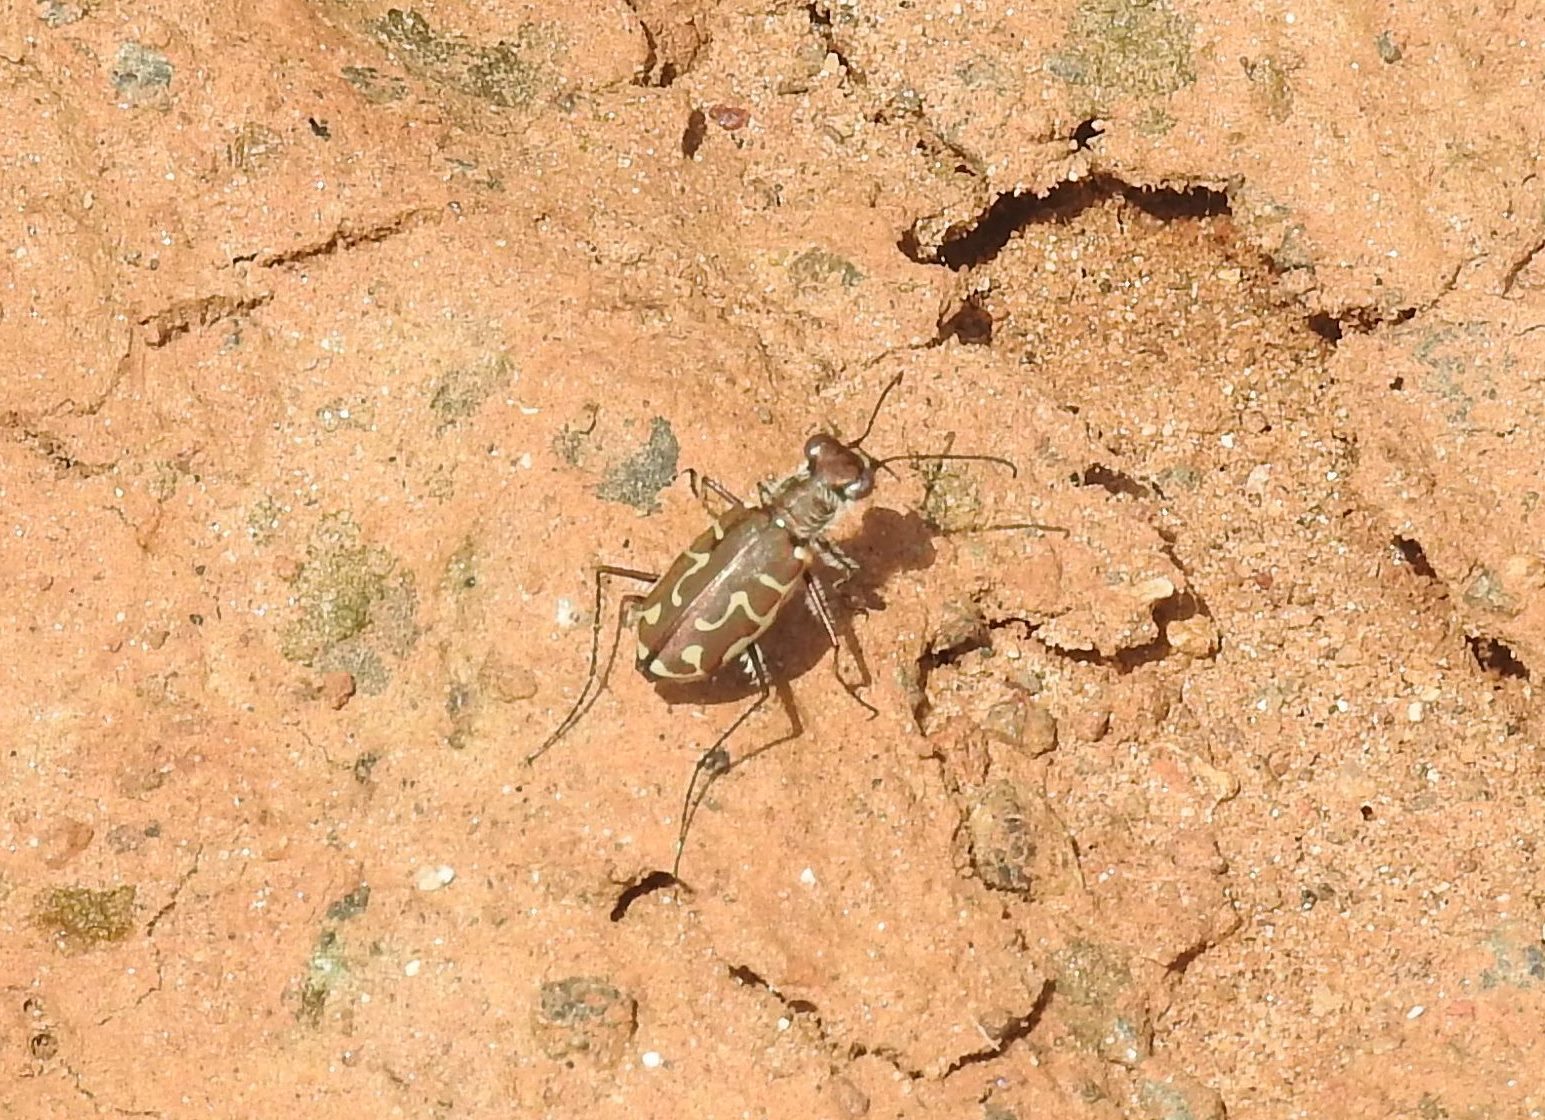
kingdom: Animalia
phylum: Arthropoda
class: Insecta
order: Coleoptera
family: Carabidae
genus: Cicindela
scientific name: Cicindela angulata
